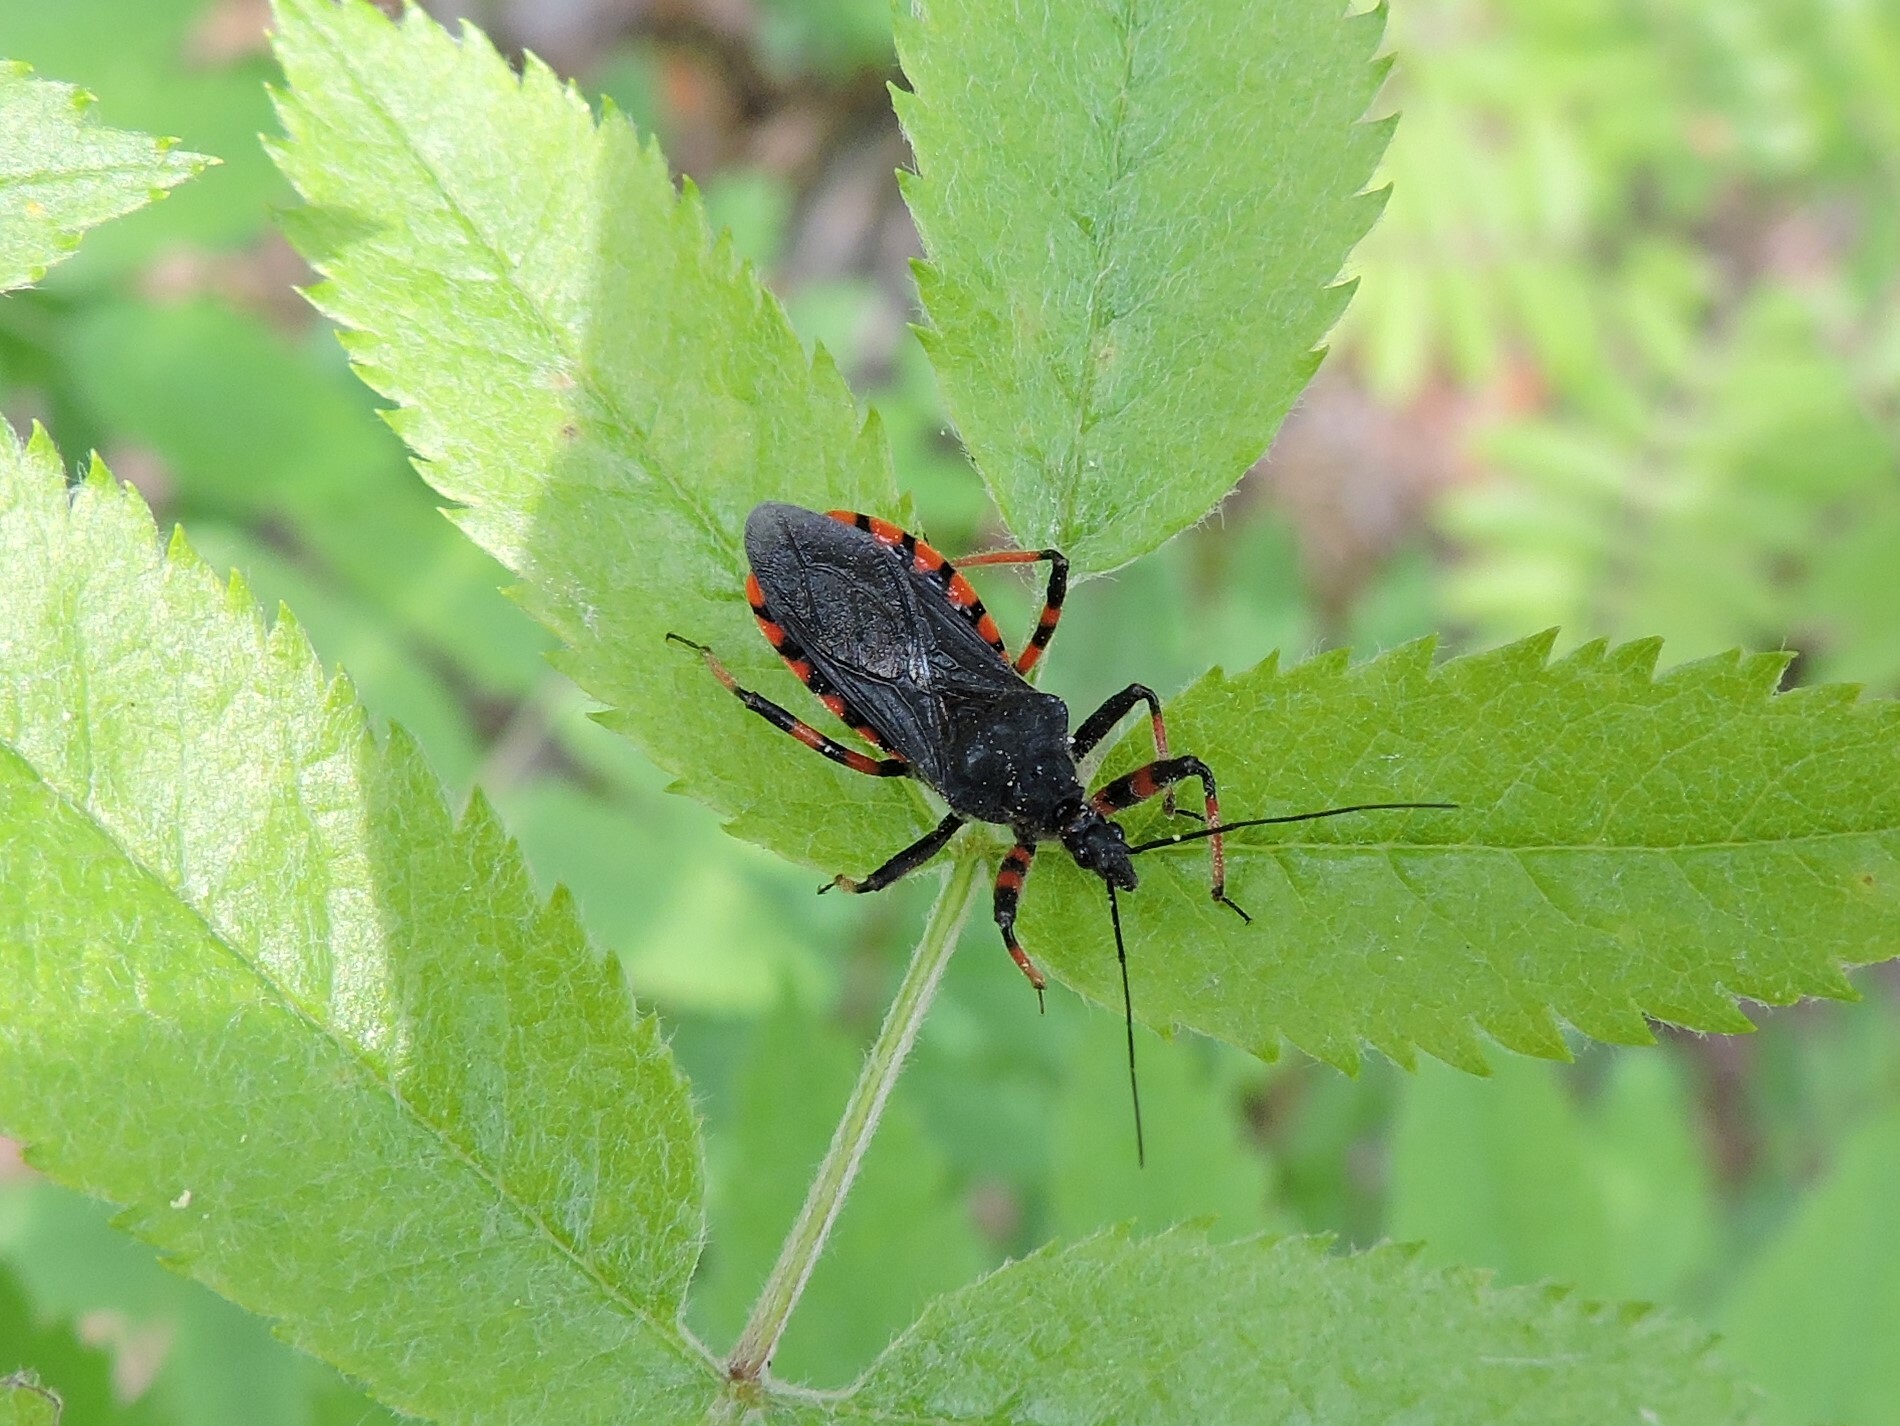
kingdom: Animalia
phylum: Arthropoda
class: Insecta
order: Hemiptera
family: Reduviidae
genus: Rhynocoris
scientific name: Rhynocoris annulatus
